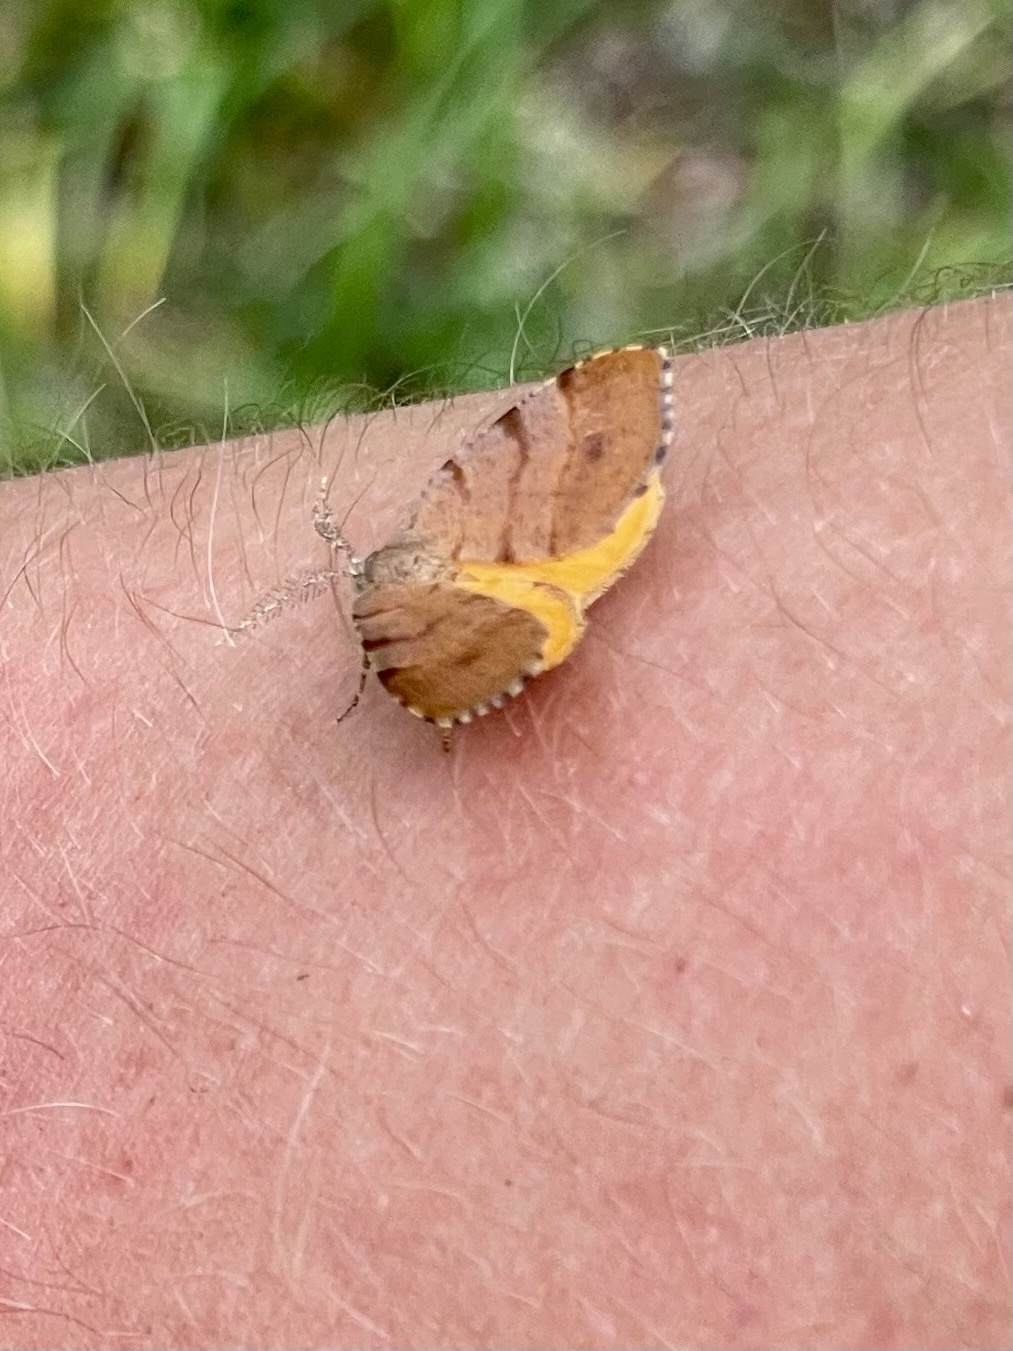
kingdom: Animalia
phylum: Arthropoda
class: Insecta
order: Lepidoptera
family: Geometridae
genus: Mellilla
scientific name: Mellilla xanthometata
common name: Orange wing moth
